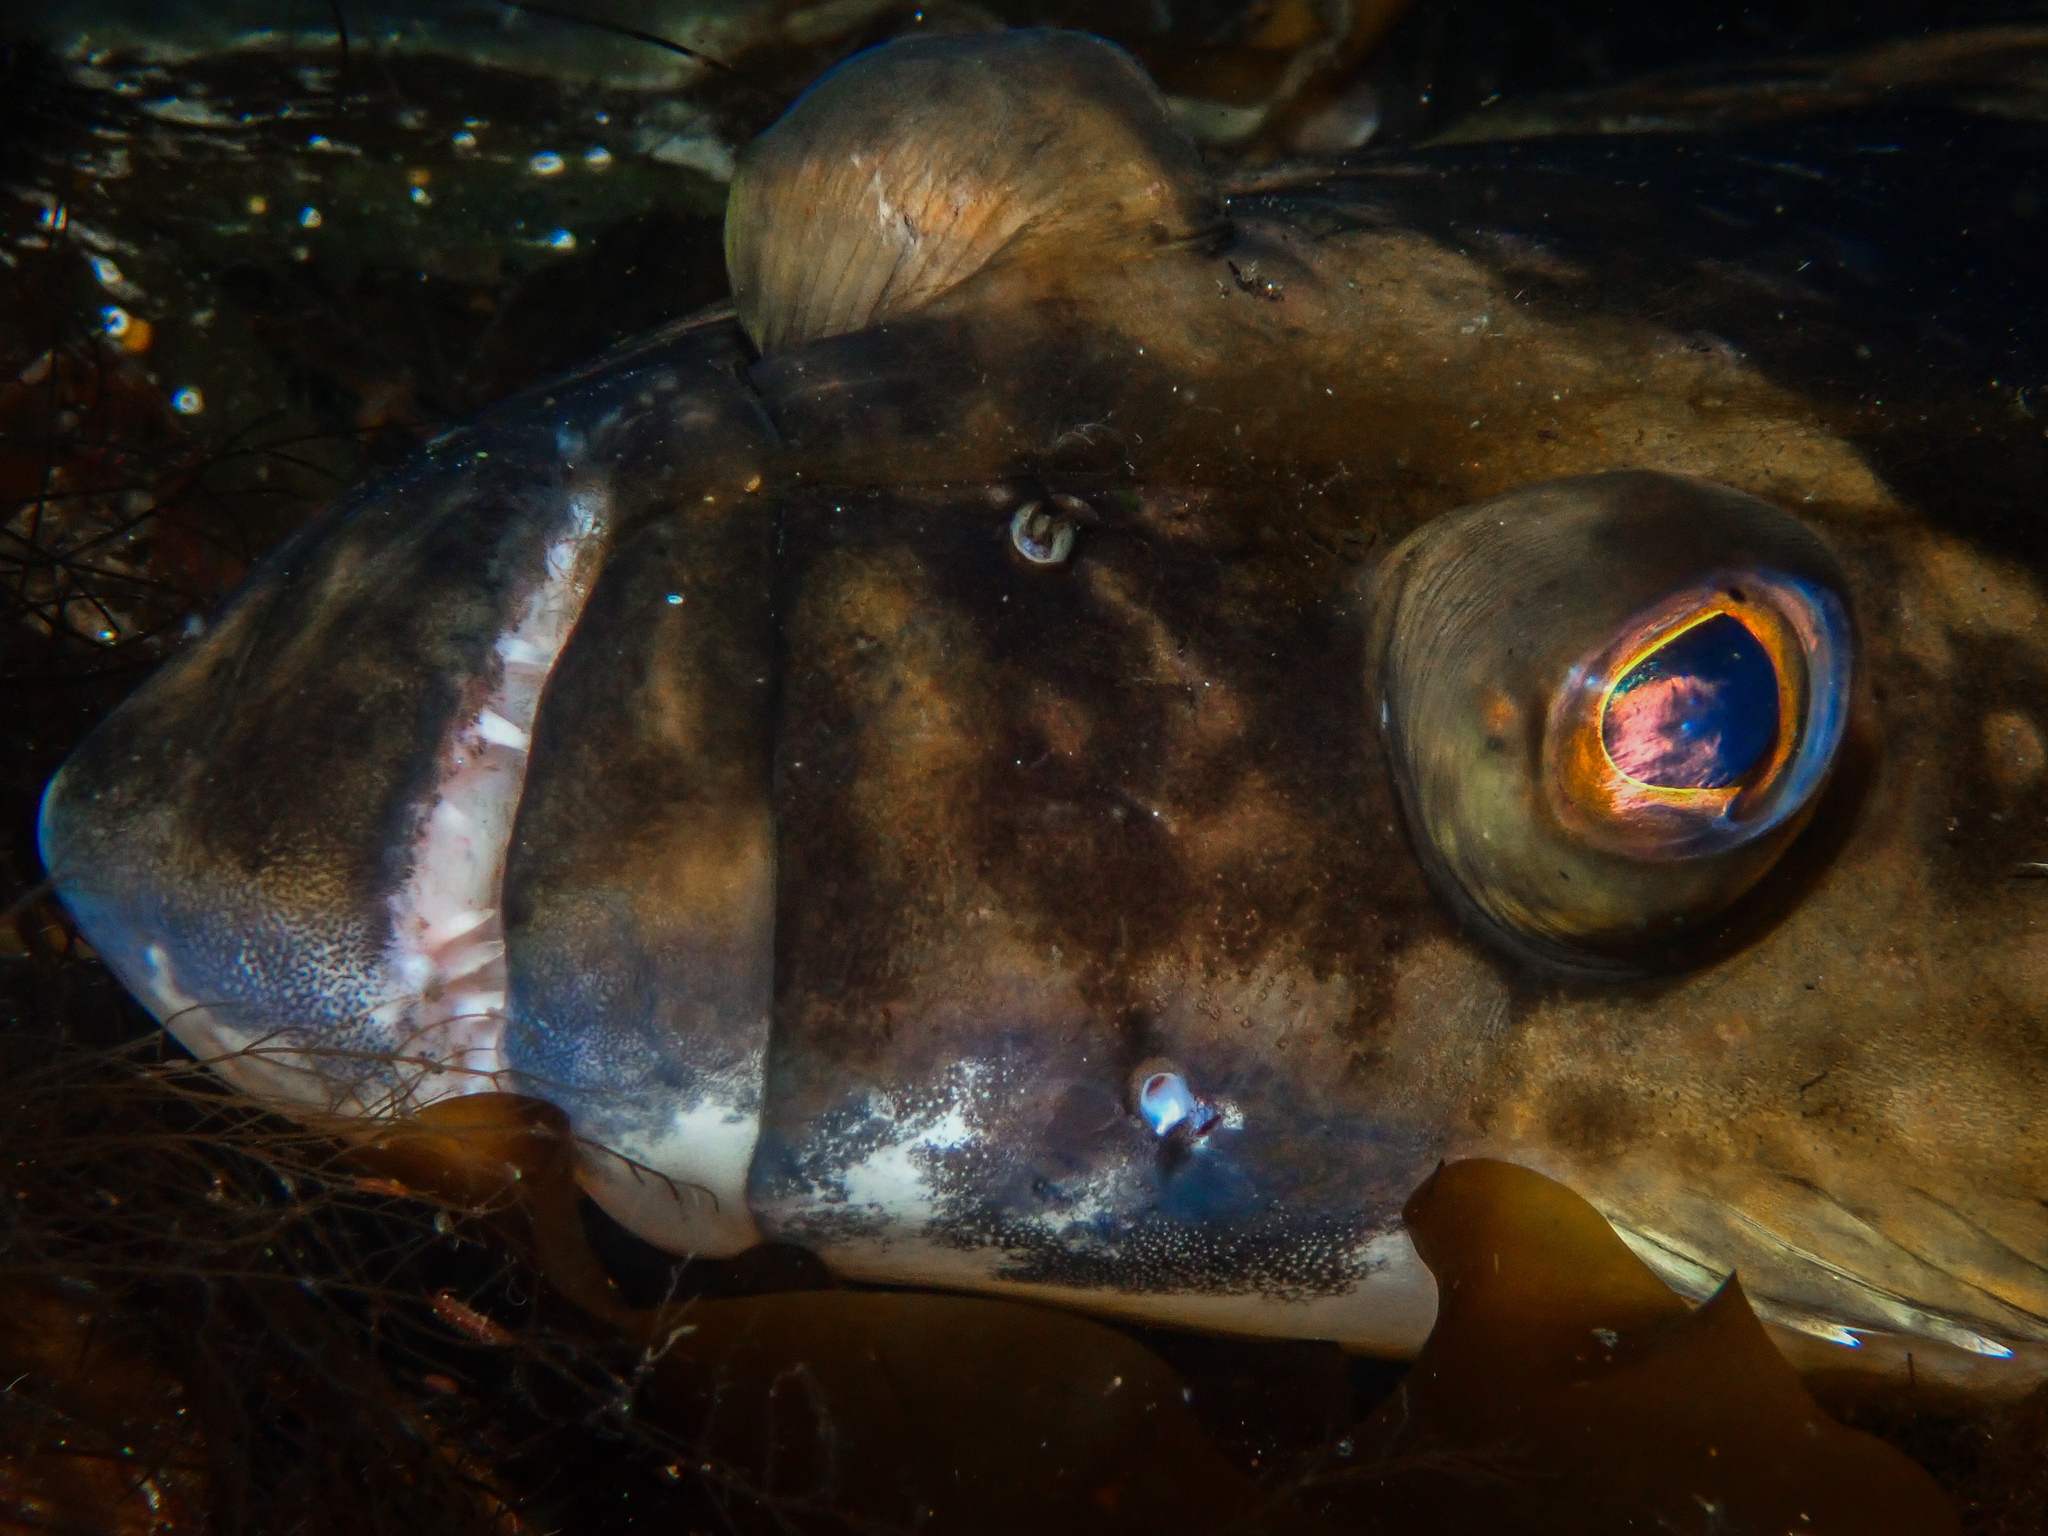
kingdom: Animalia
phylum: Chordata
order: Pleuronectiformes
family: Pleuronectidae
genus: Hippoglossus
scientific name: Hippoglossus hippoglossus
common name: Atlantic halibut
